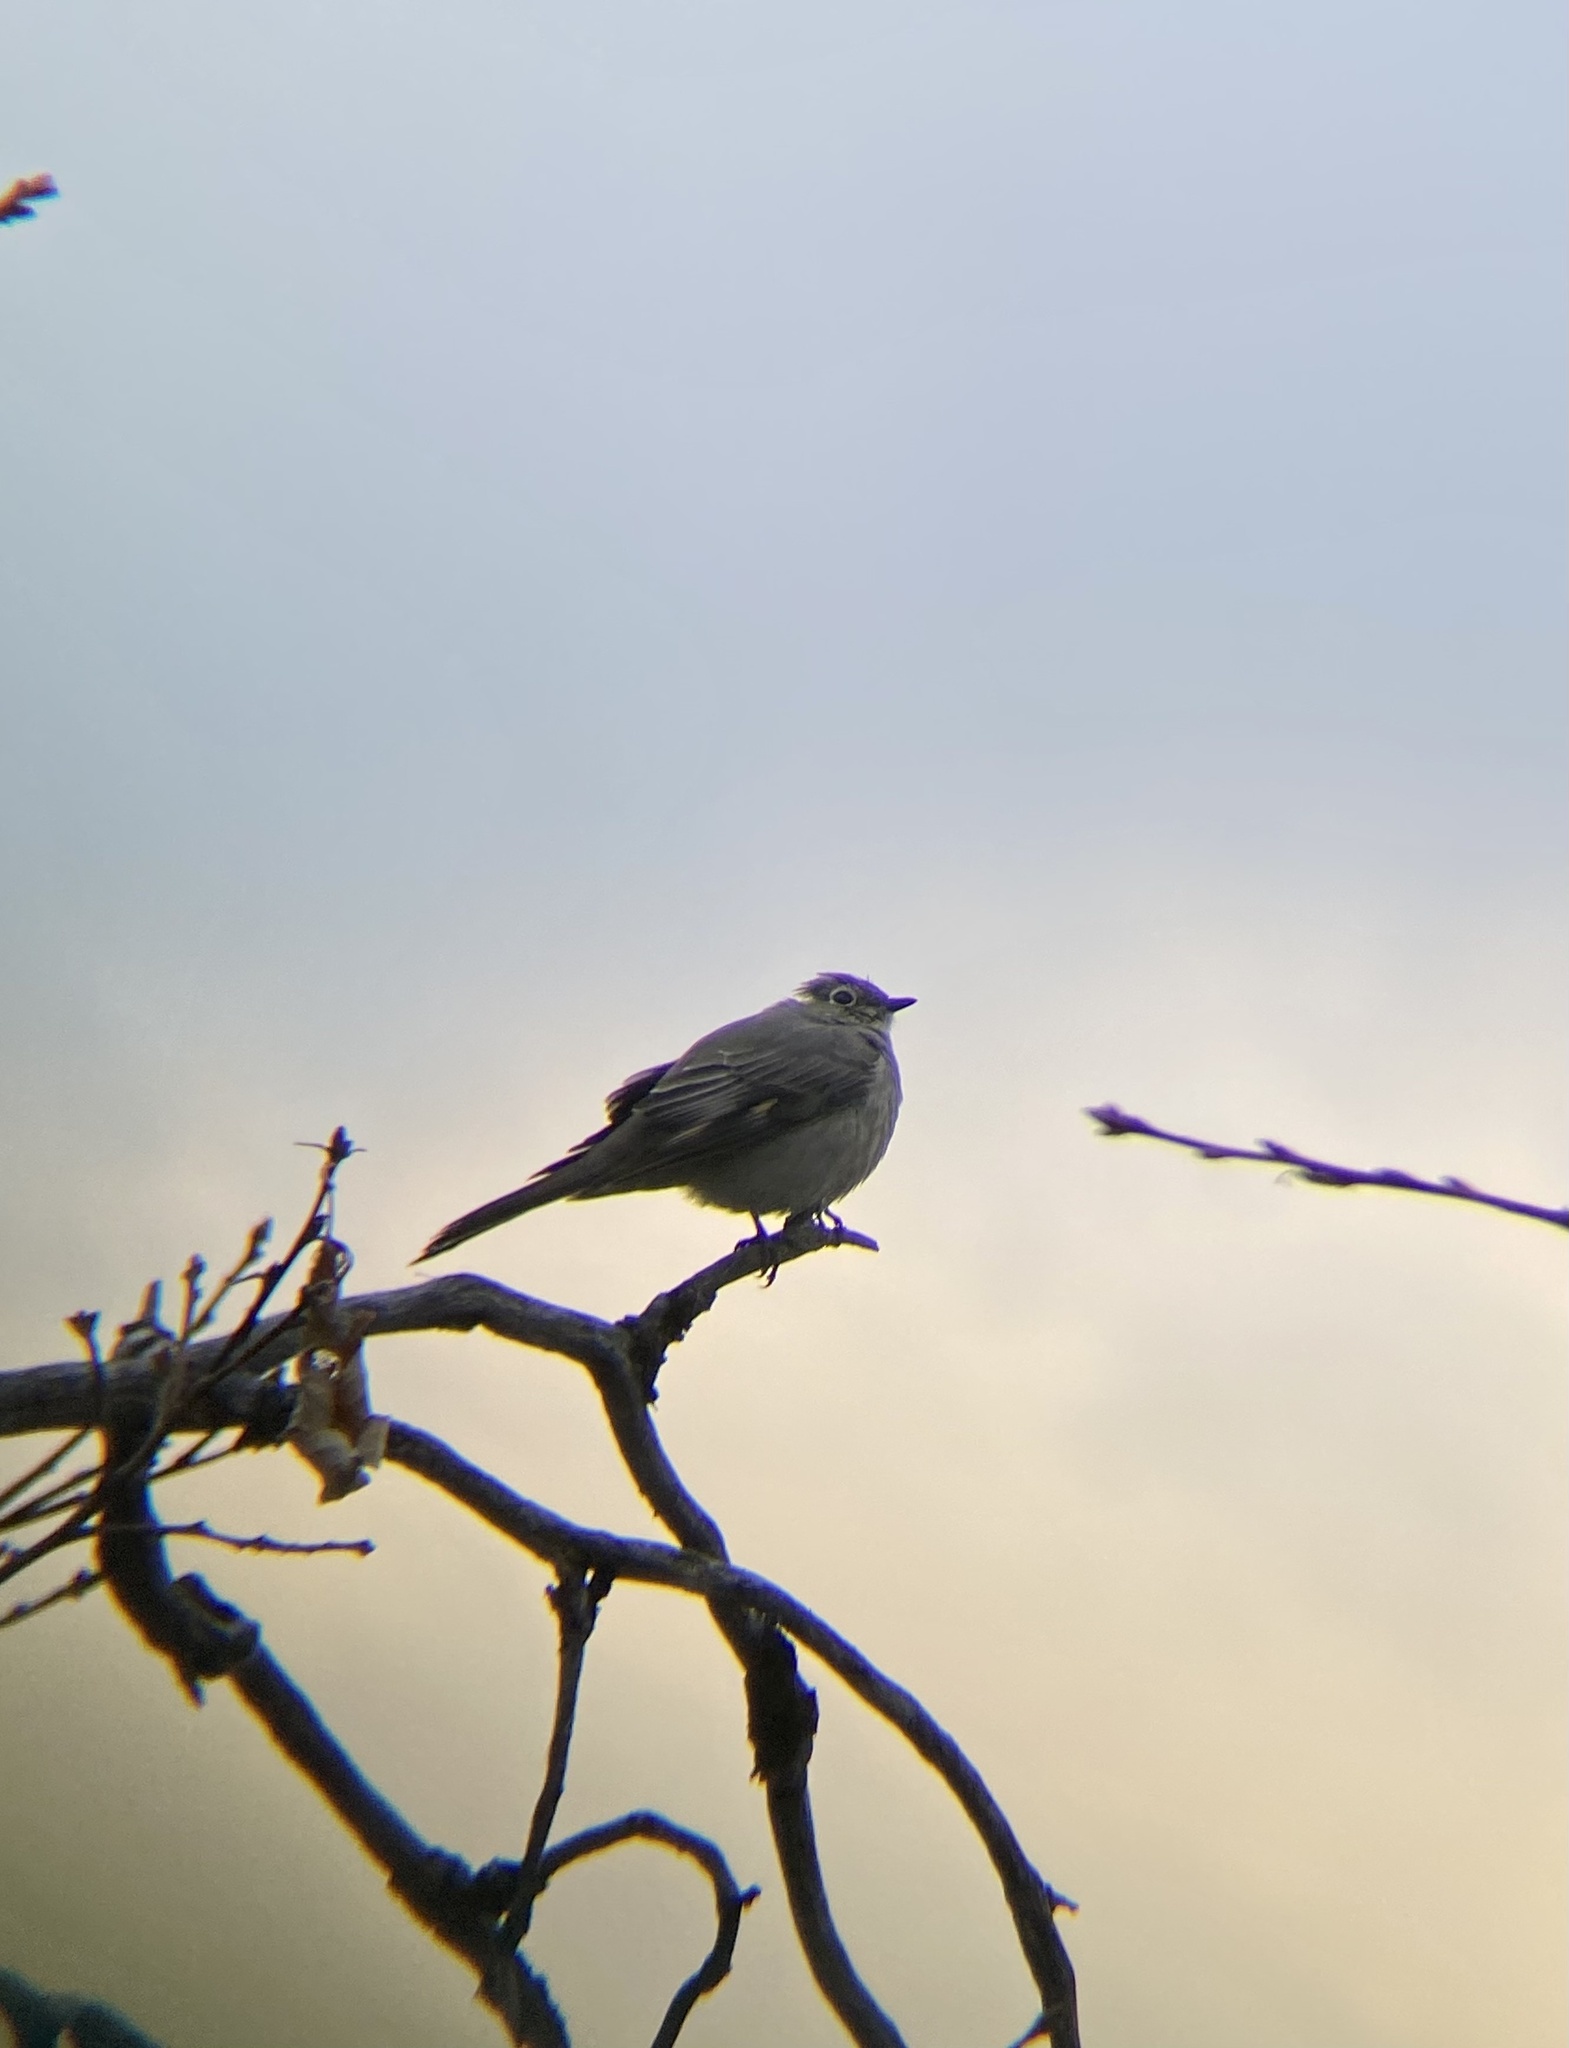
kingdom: Animalia
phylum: Chordata
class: Aves
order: Passeriformes
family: Turdidae
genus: Myadestes
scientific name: Myadestes townsendi
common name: Townsend's solitaire
